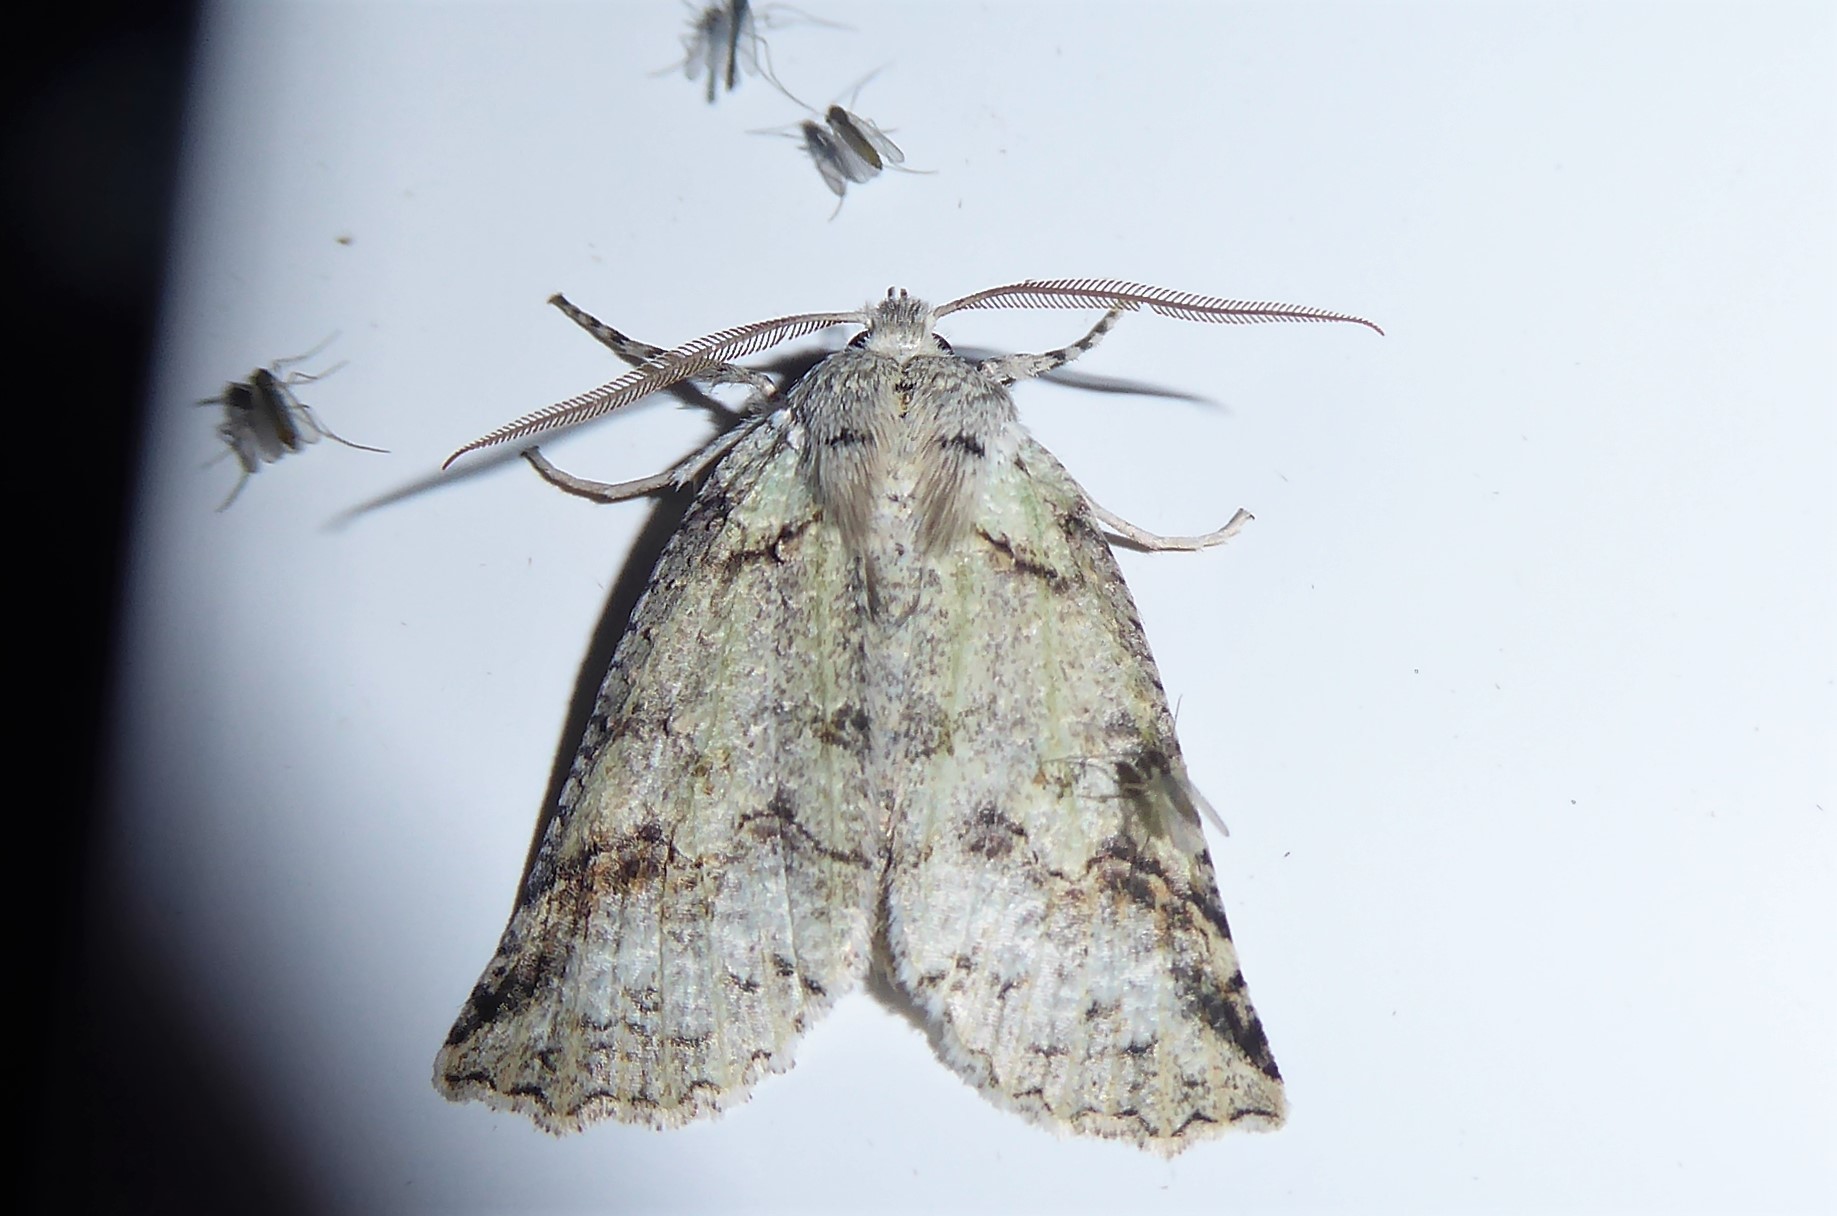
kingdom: Animalia
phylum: Arthropoda
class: Insecta
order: Lepidoptera
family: Geometridae
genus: Declana
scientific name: Declana floccosa
